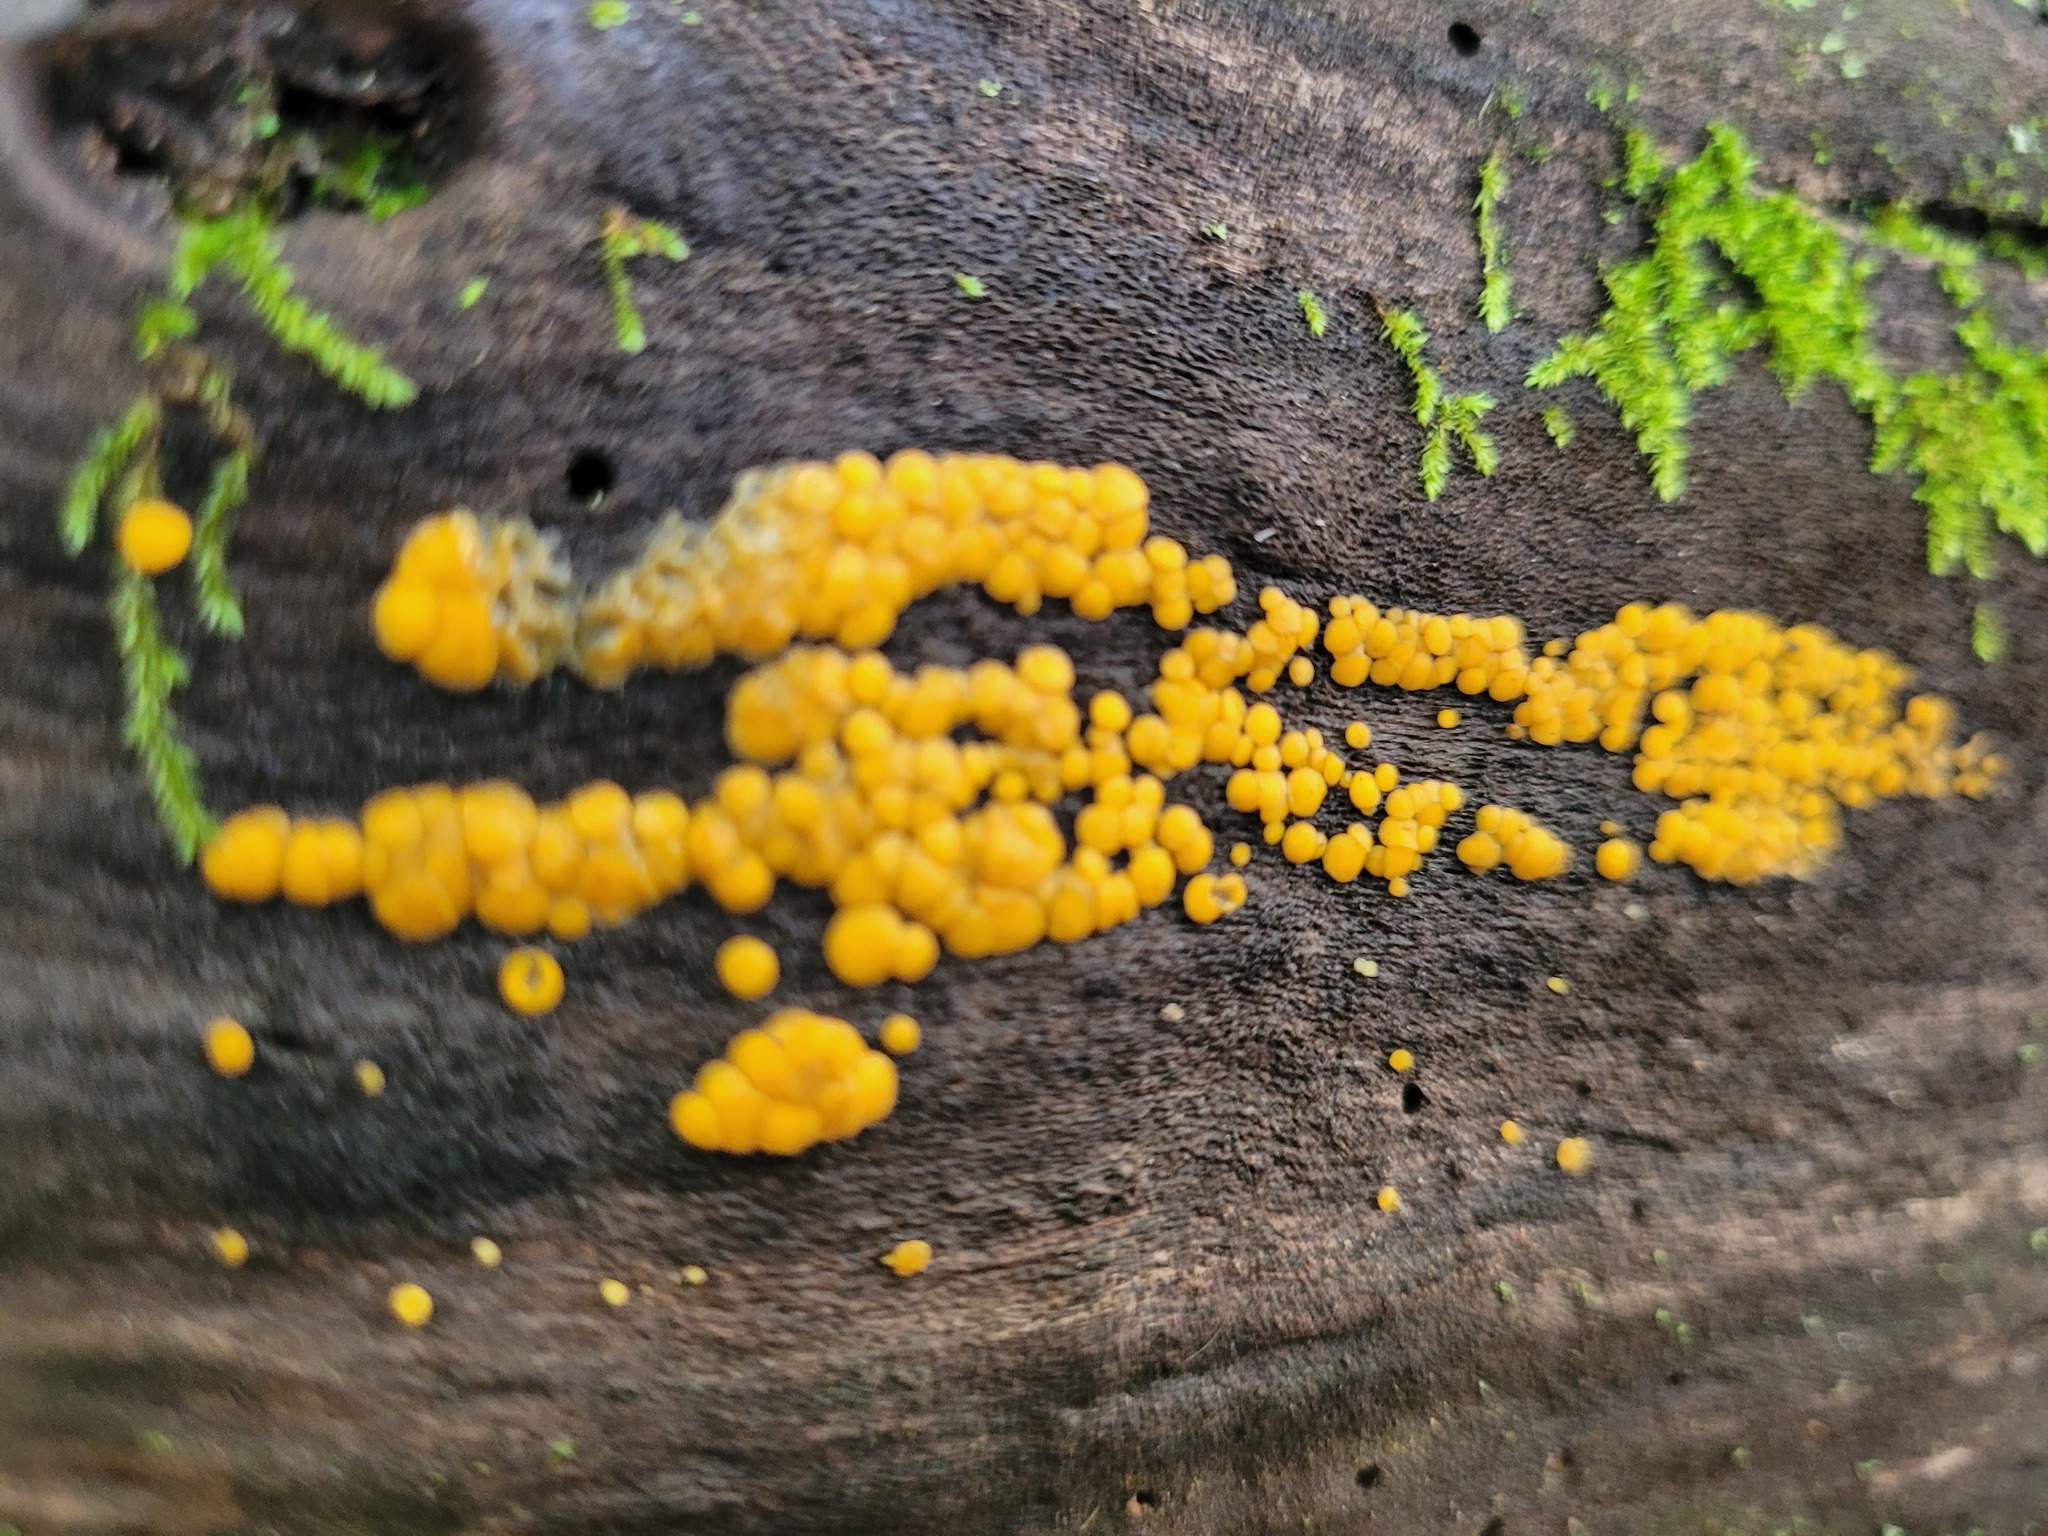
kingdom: Fungi
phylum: Ascomycota
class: Leotiomycetes
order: Helotiales
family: Pezizellaceae
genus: Calycina
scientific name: Calycina citrina
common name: Yellow fairy cups
